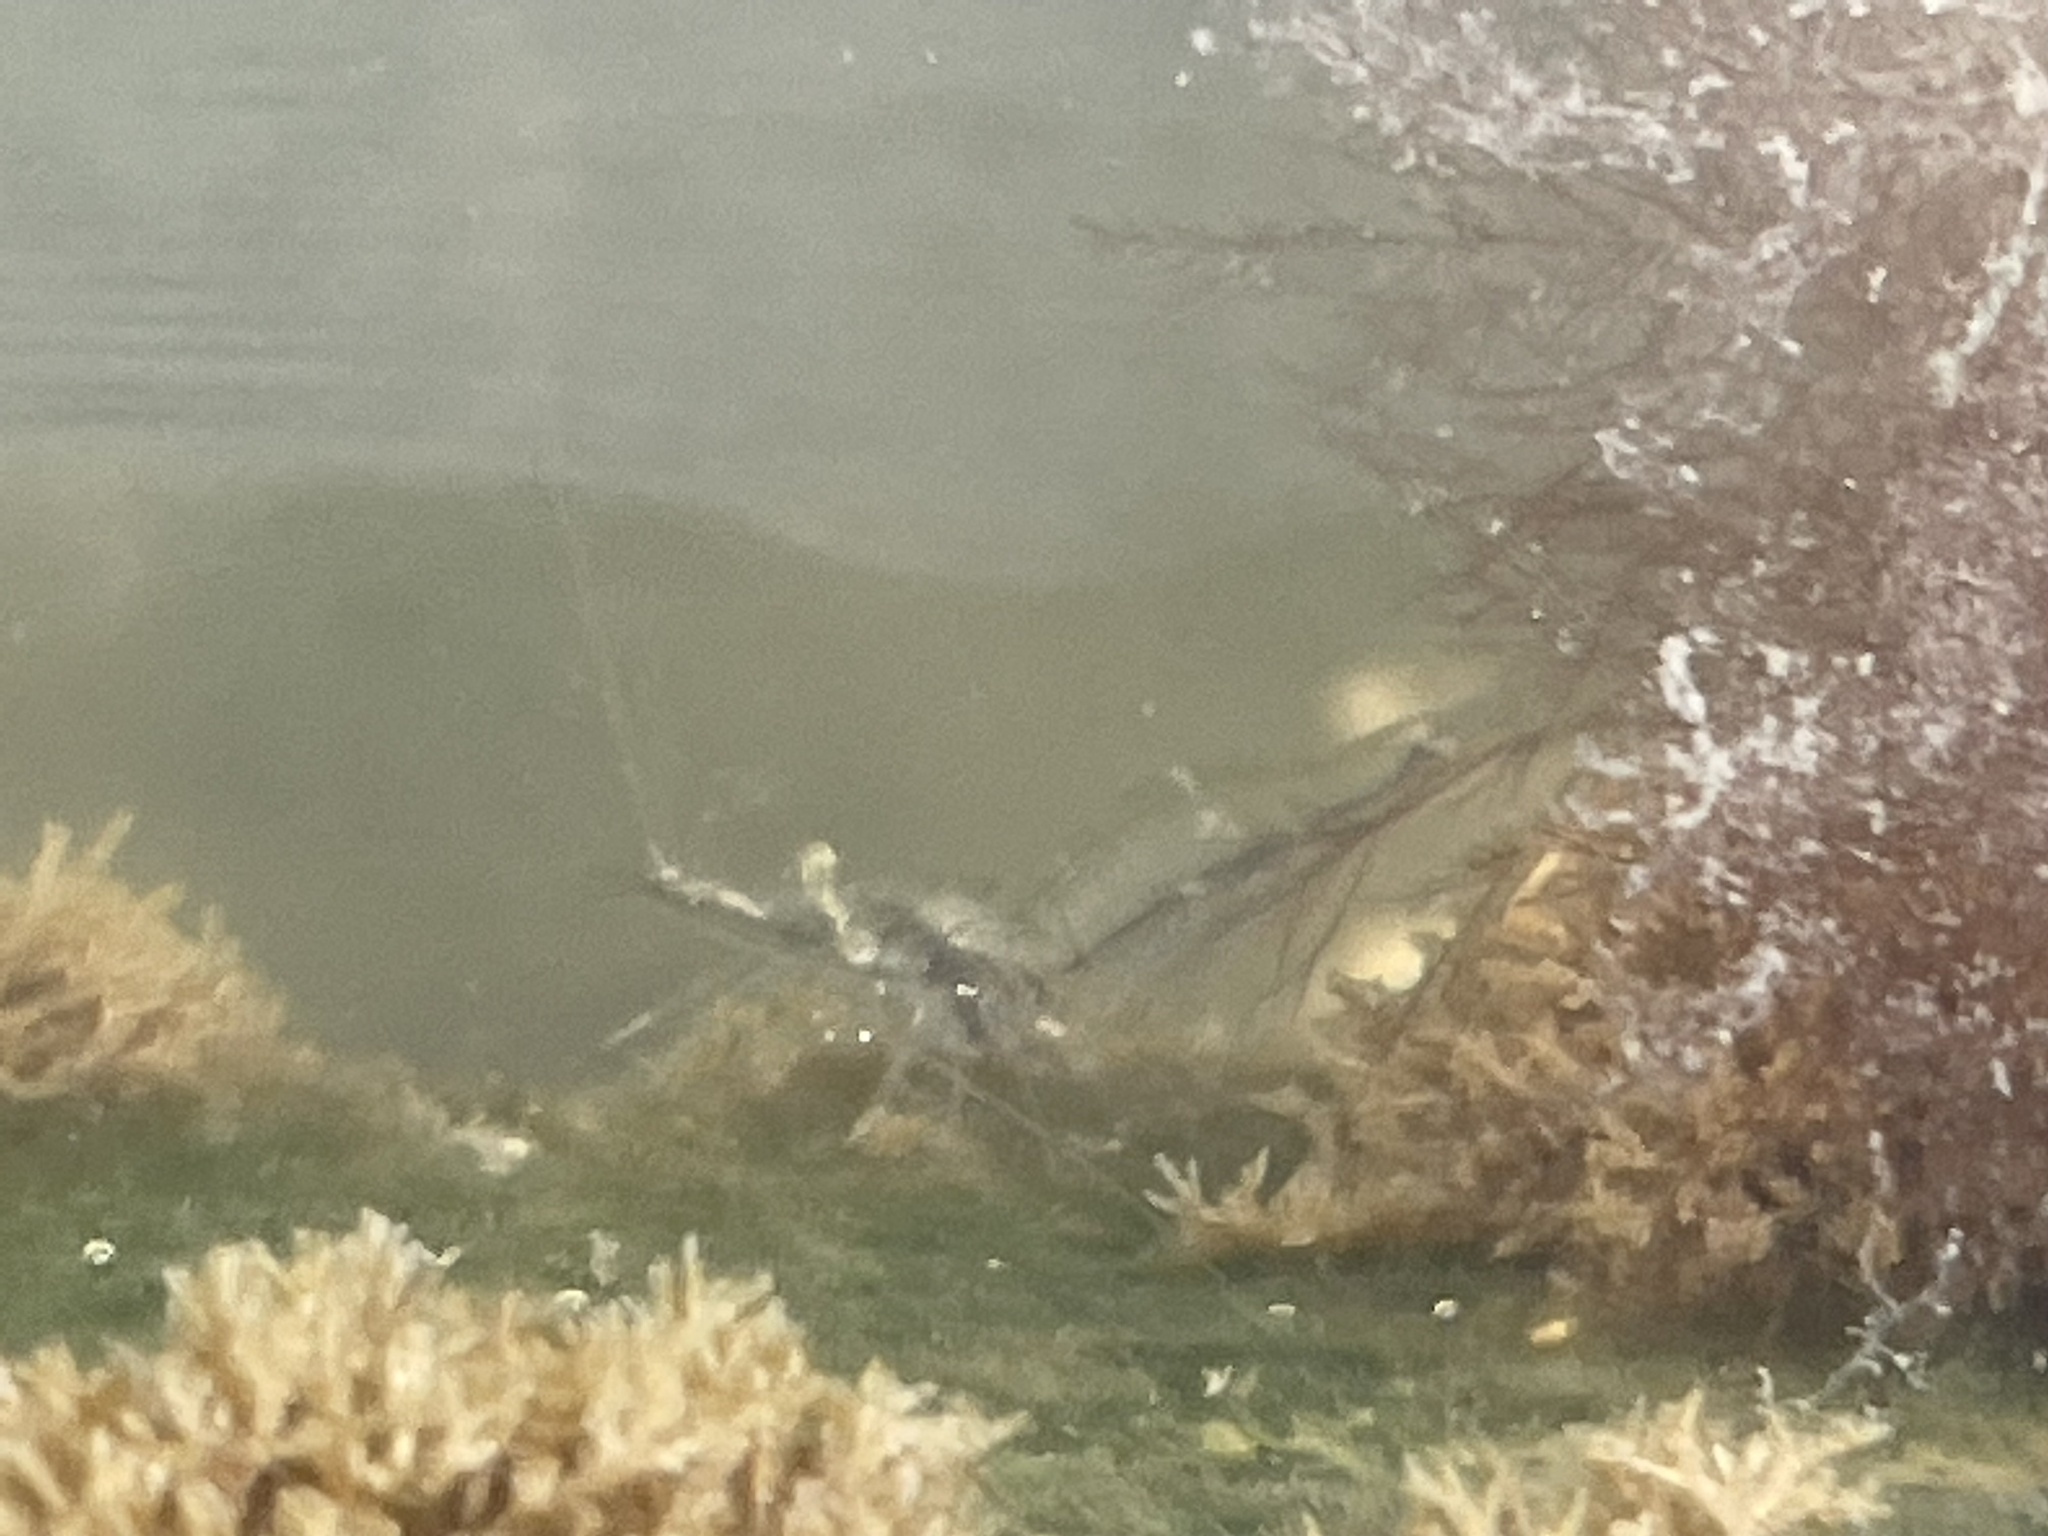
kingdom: Animalia
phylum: Arthropoda
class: Malacostraca
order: Decapoda
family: Palaemonidae
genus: Palaemon
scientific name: Palaemon paludosus
